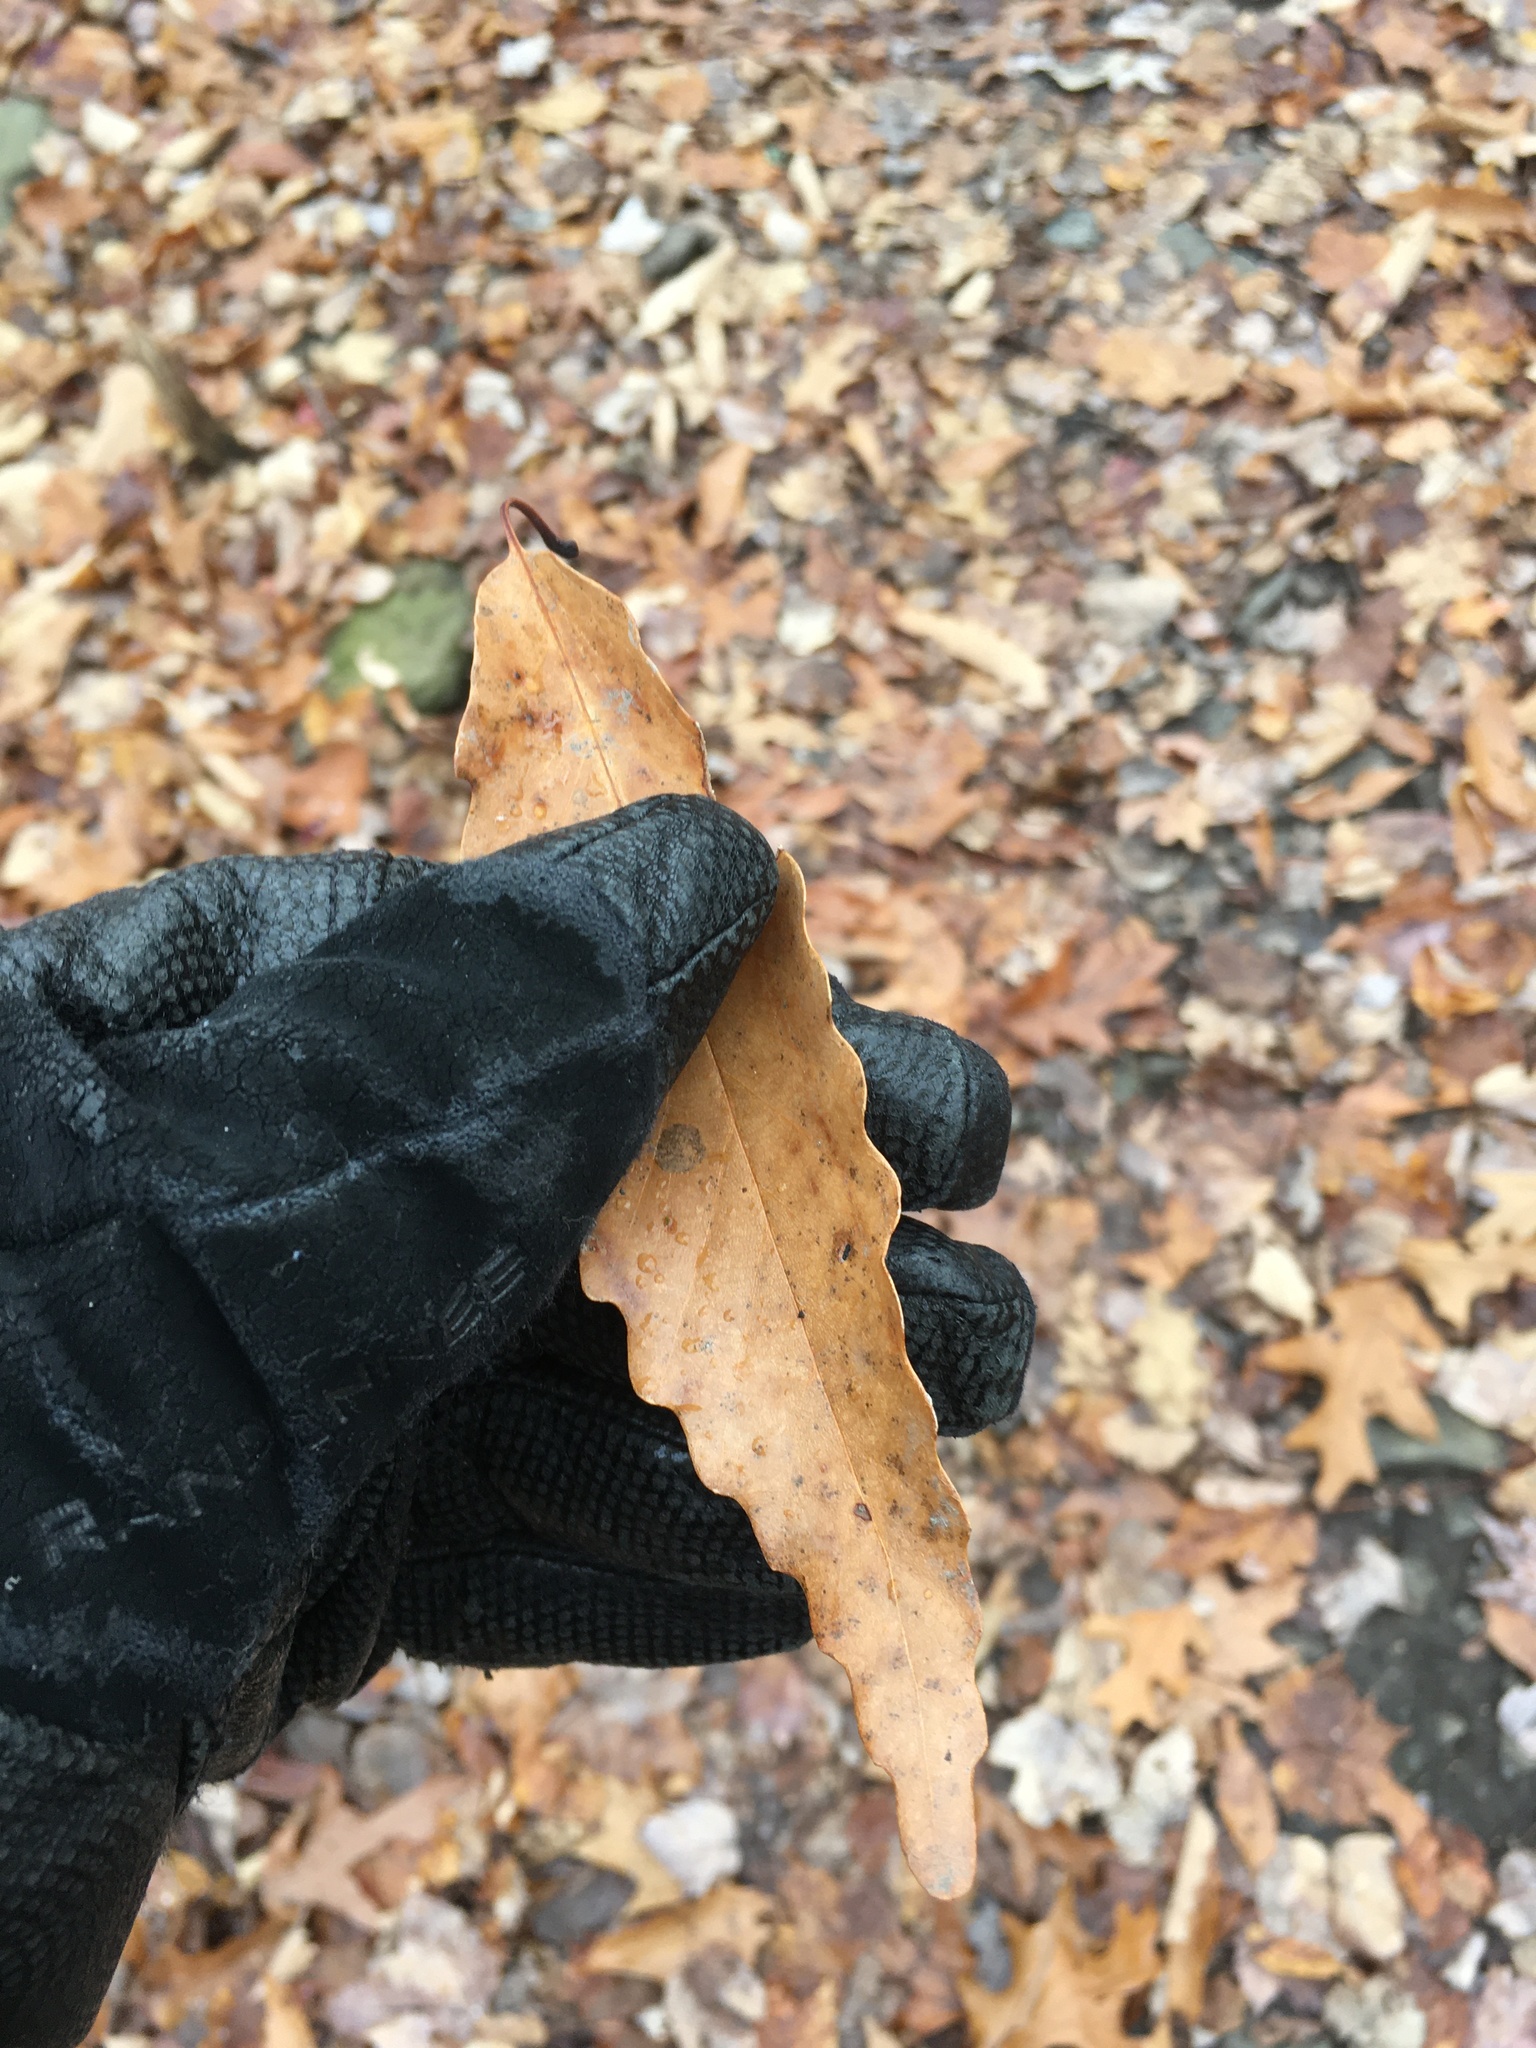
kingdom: Plantae
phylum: Tracheophyta
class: Magnoliopsida
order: Fagales
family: Fagaceae
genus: Quercus
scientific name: Quercus montana
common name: Chestnut oak
